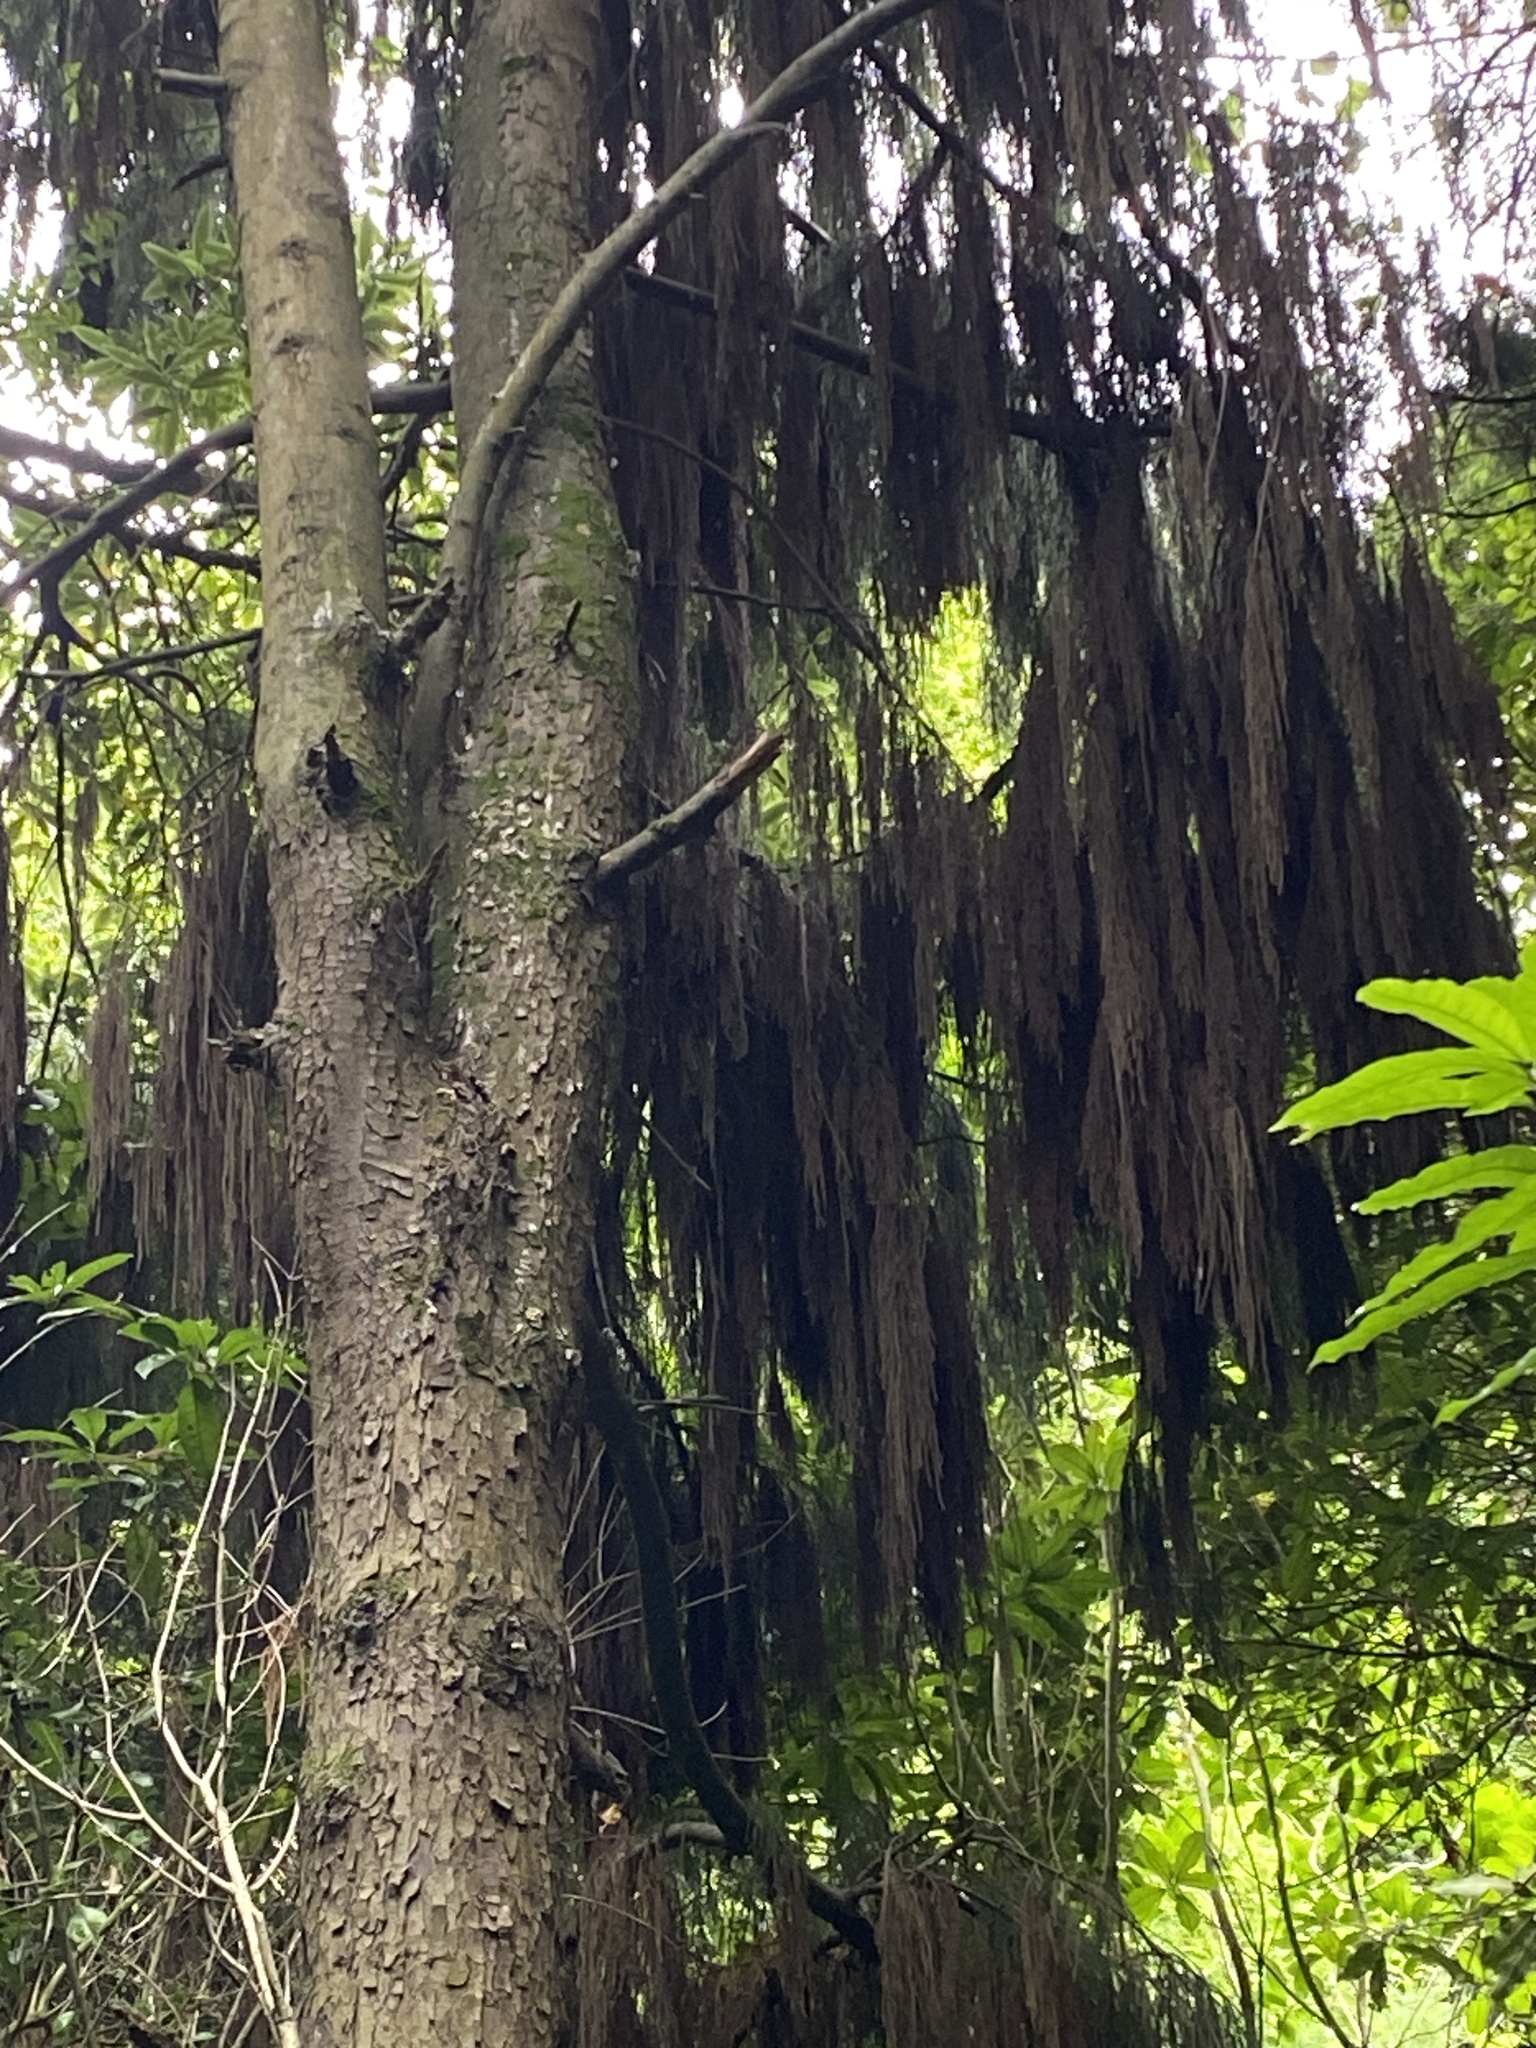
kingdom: Plantae
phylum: Tracheophyta
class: Pinopsida
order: Pinales
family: Podocarpaceae
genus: Dacrydium
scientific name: Dacrydium cupressinum
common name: Red pine
